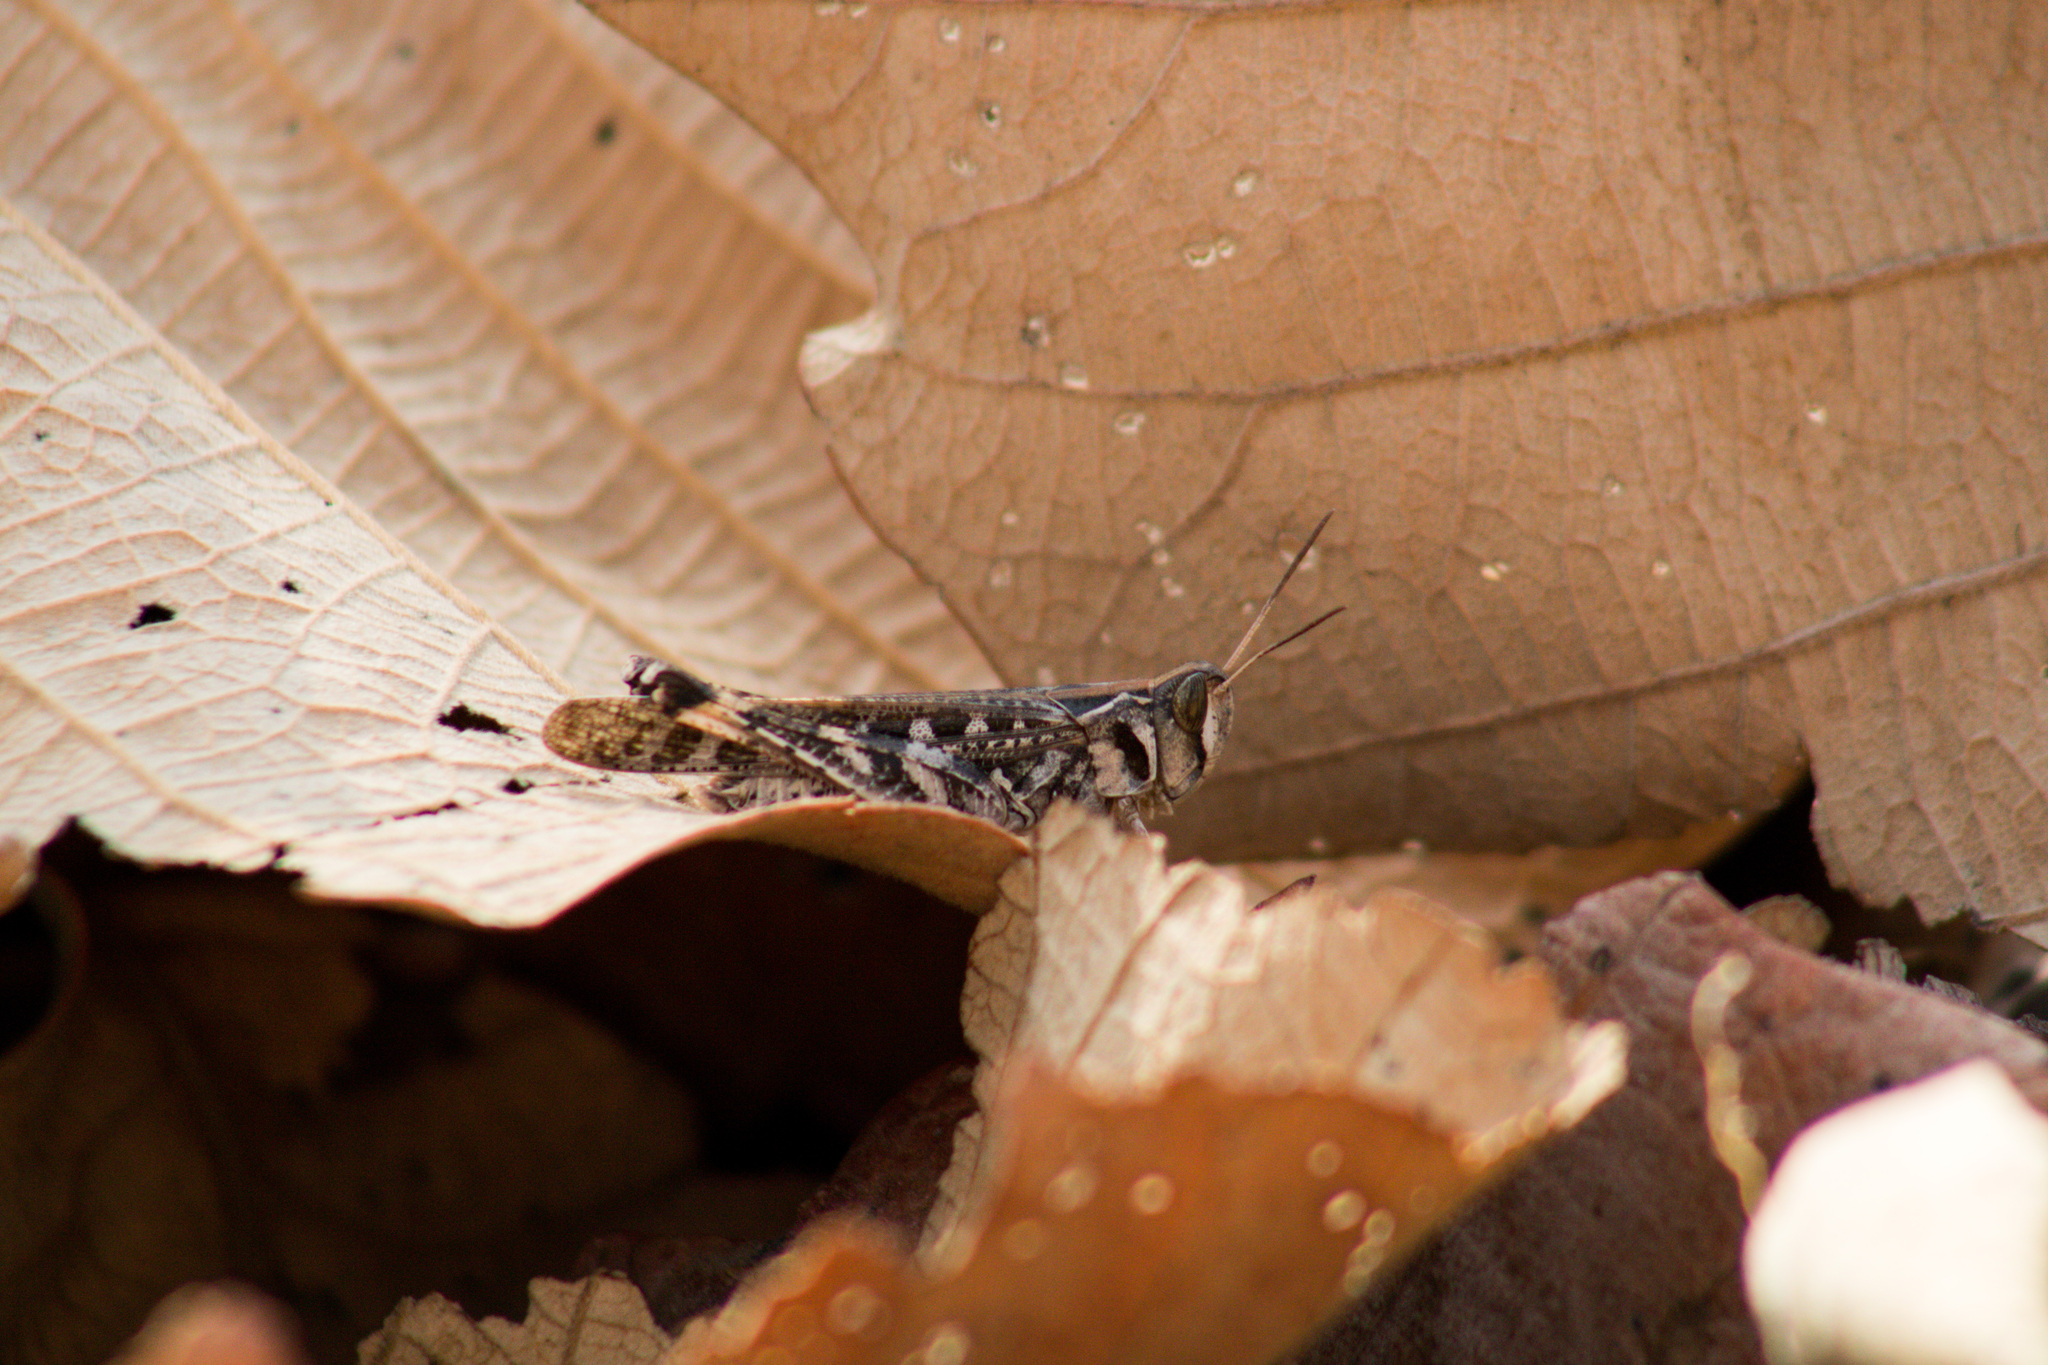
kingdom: Animalia
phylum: Arthropoda
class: Insecta
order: Orthoptera
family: Acrididae
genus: Rhammatocerus
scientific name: Rhammatocerus viatorius
